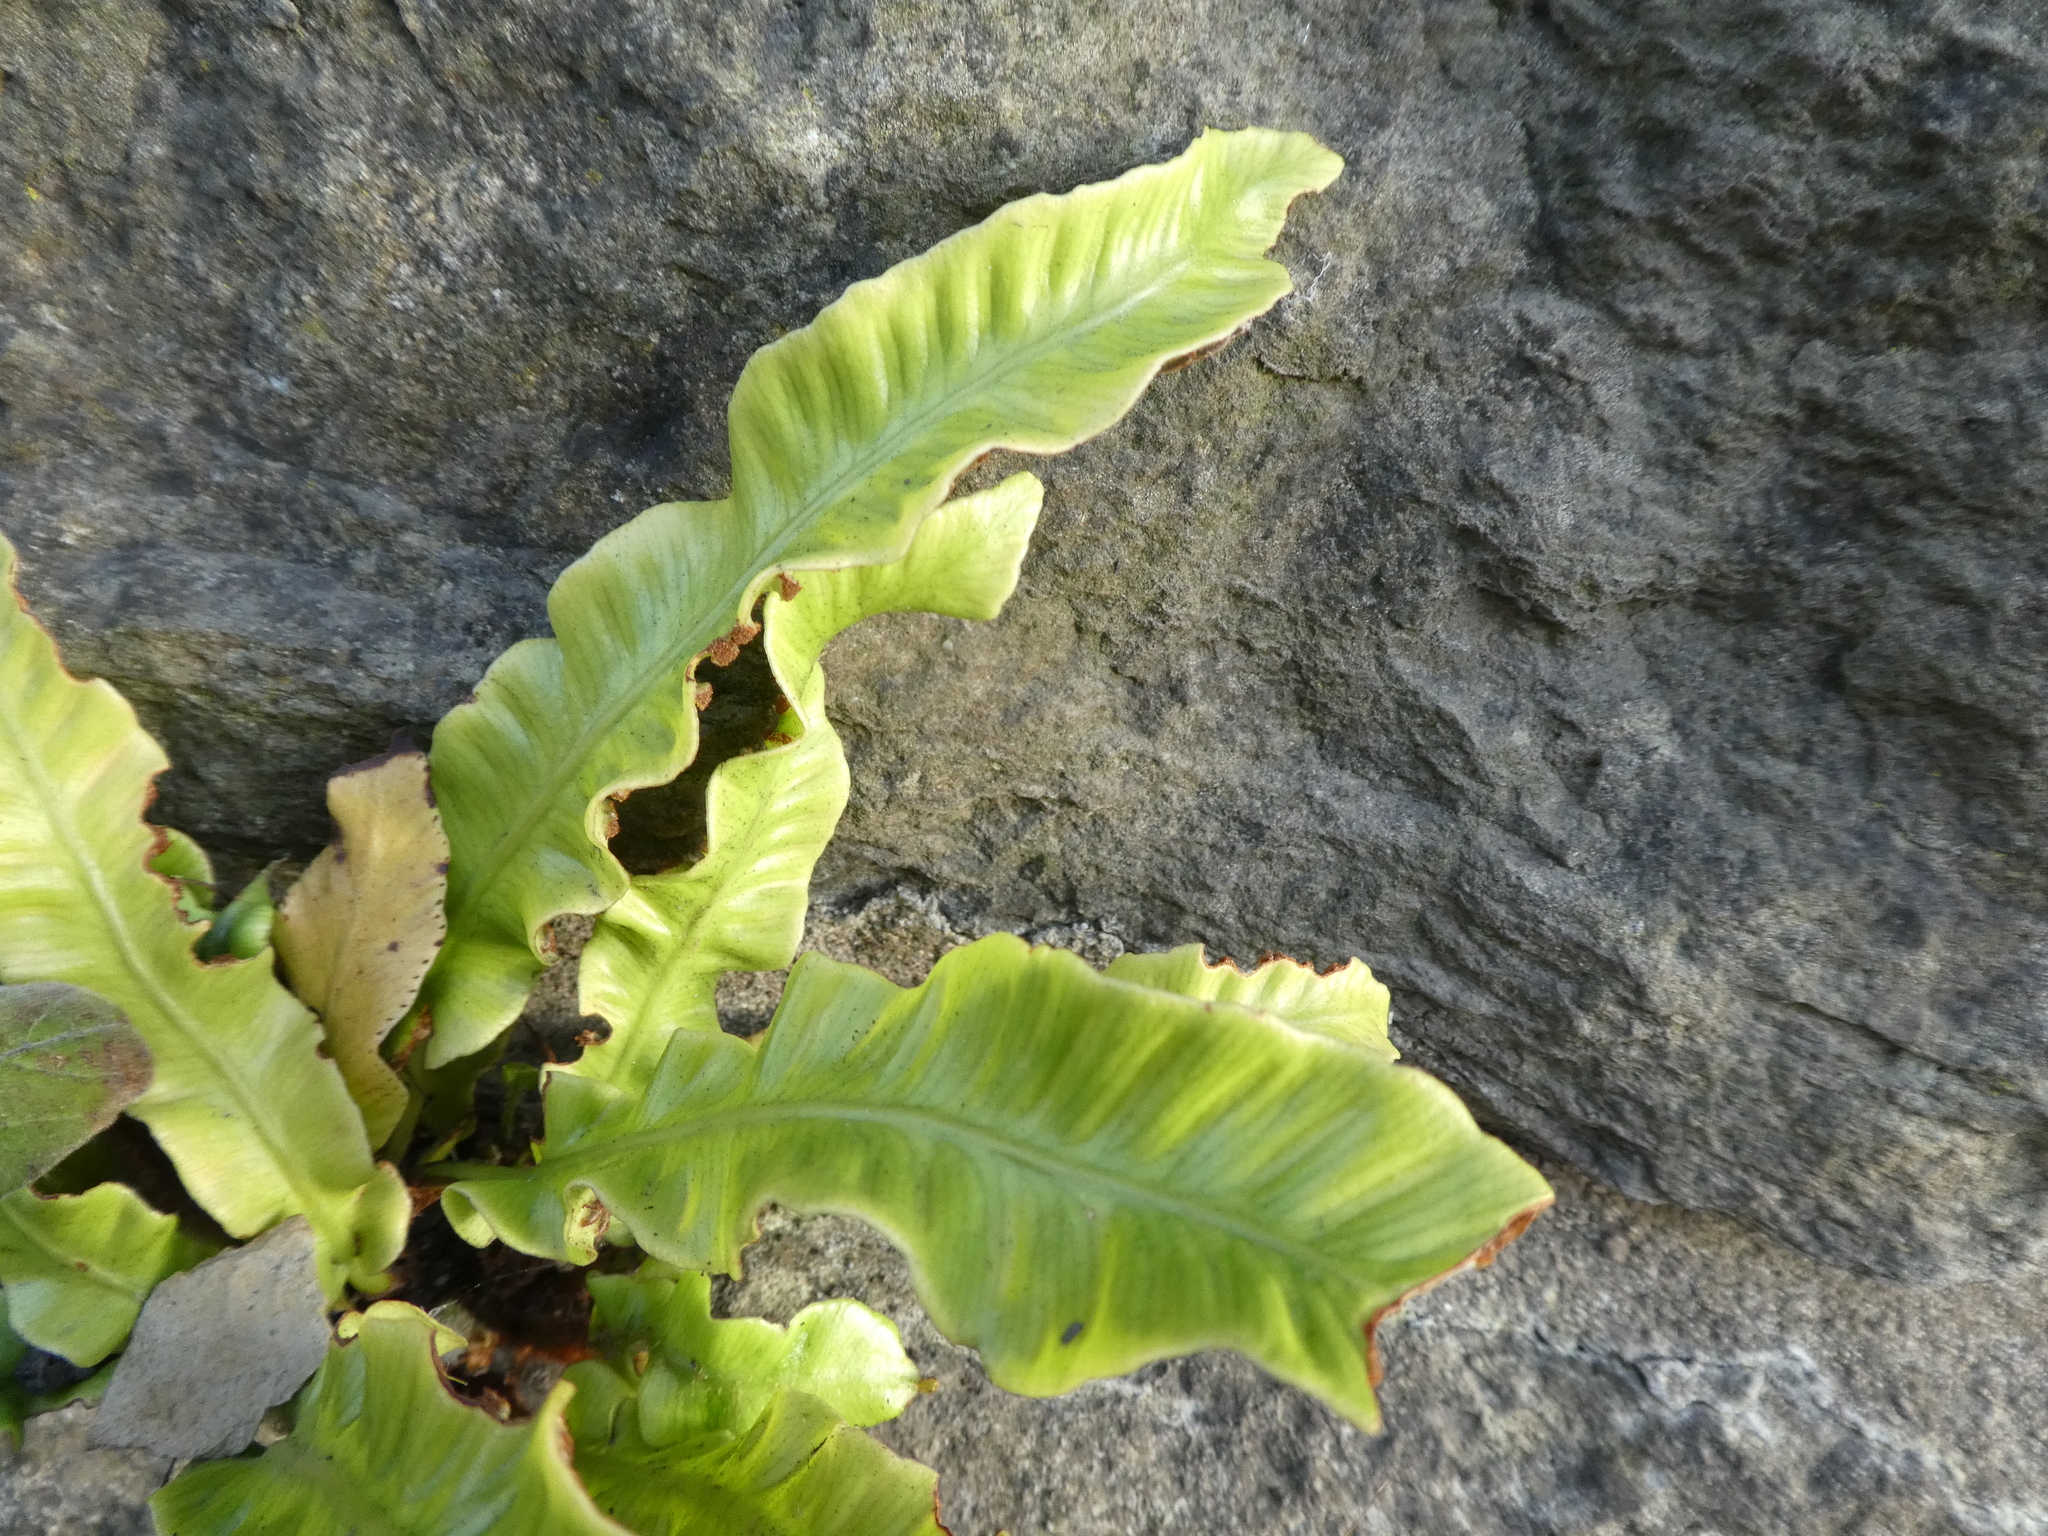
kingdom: Plantae
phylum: Tracheophyta
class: Polypodiopsida
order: Polypodiales
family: Aspleniaceae
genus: Asplenium
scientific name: Asplenium scolopendrium
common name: Hart's-tongue fern
